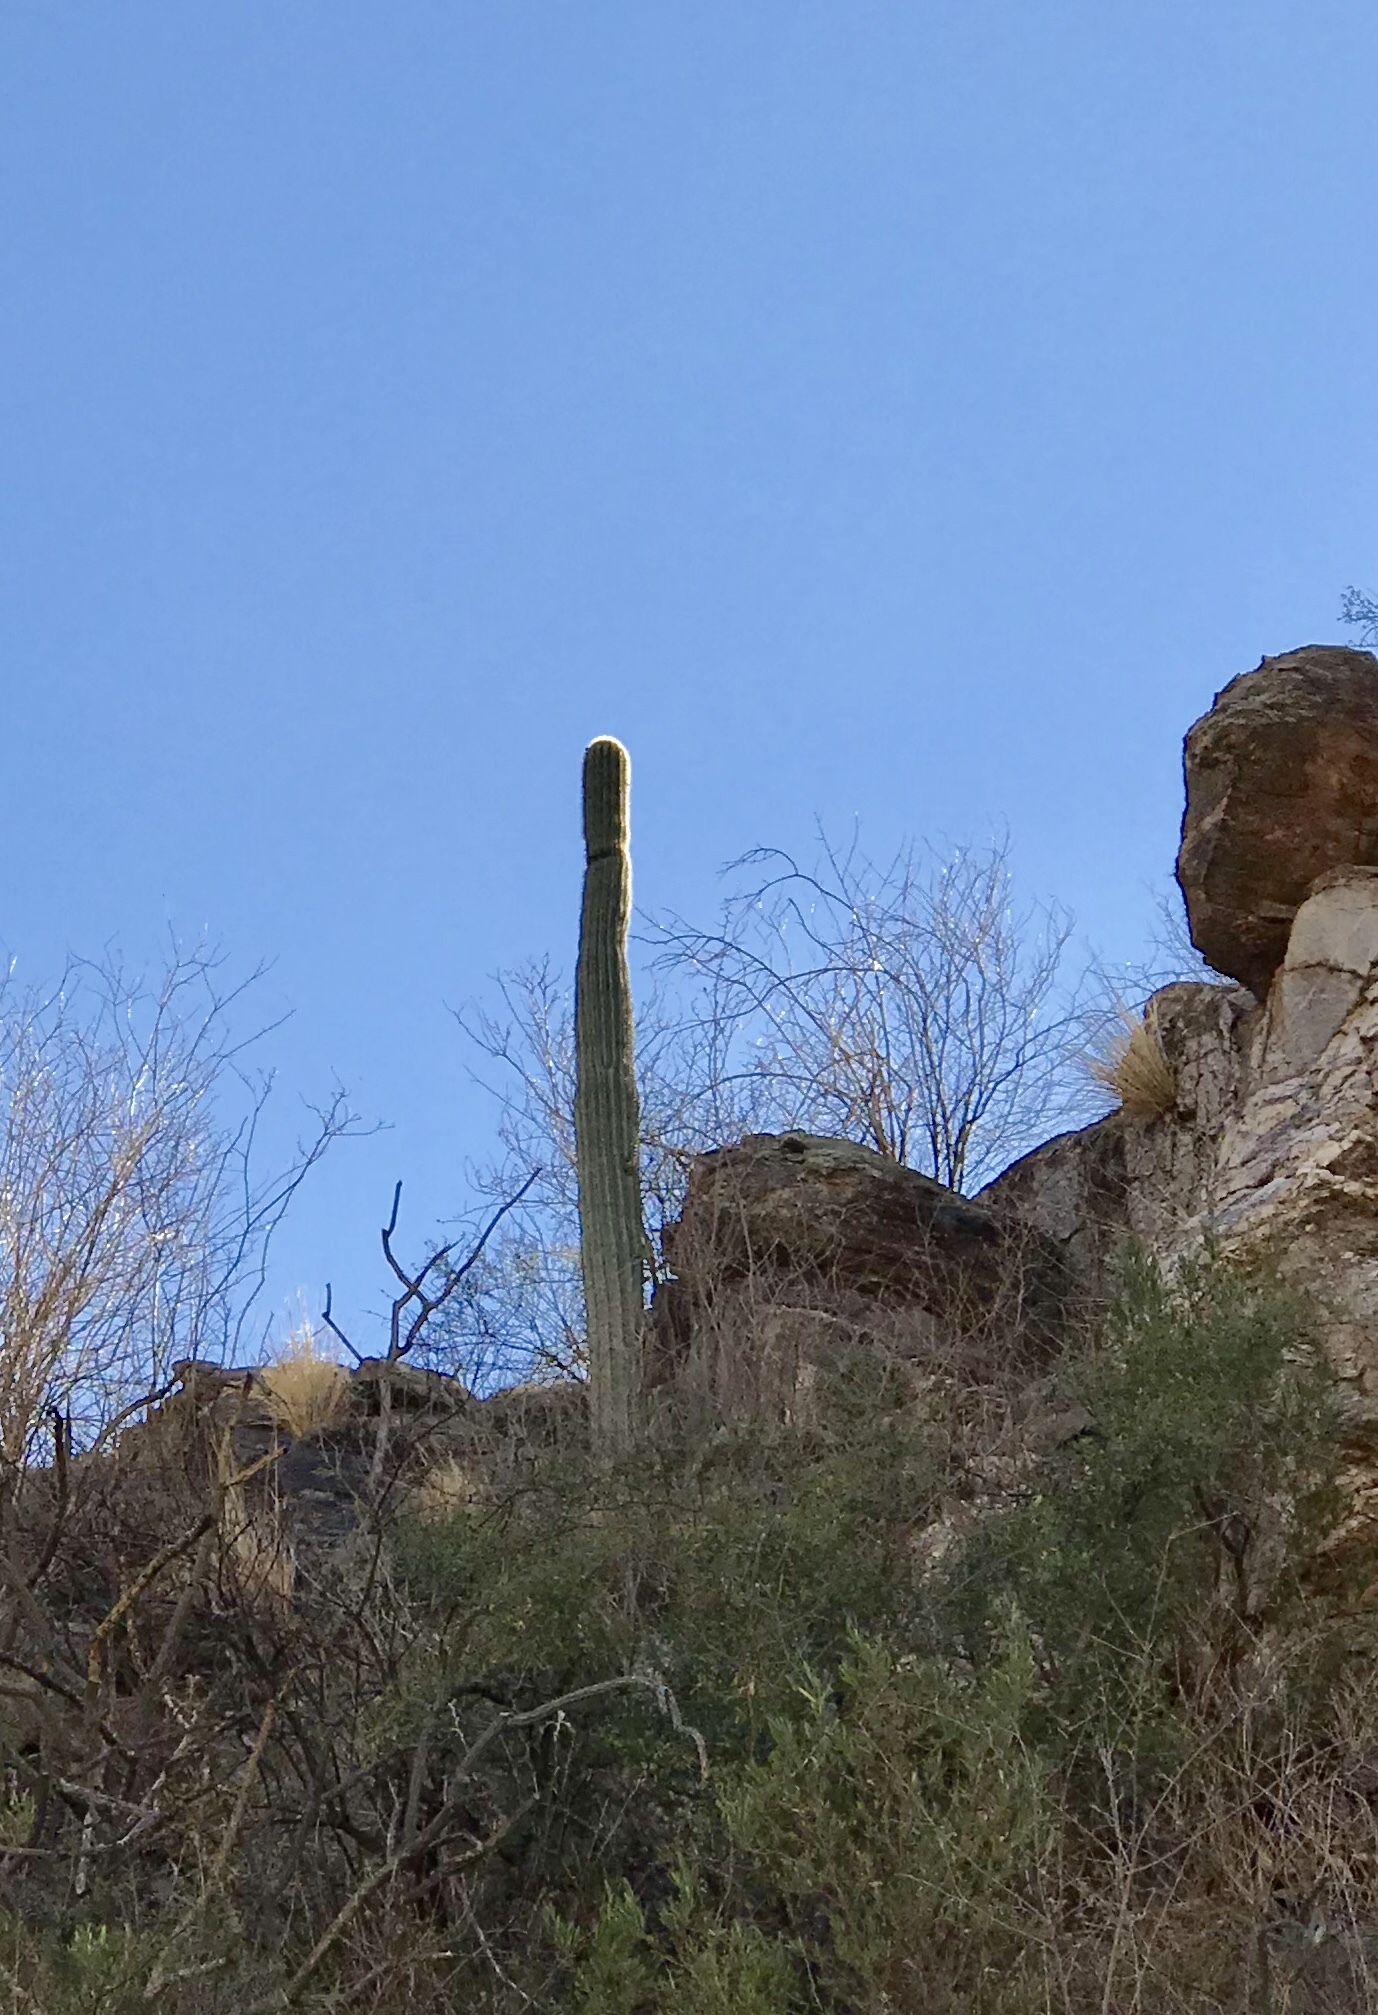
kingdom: Plantae
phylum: Tracheophyta
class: Magnoliopsida
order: Caryophyllales
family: Cactaceae
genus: Carnegiea
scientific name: Carnegiea gigantea
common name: Saguaro
